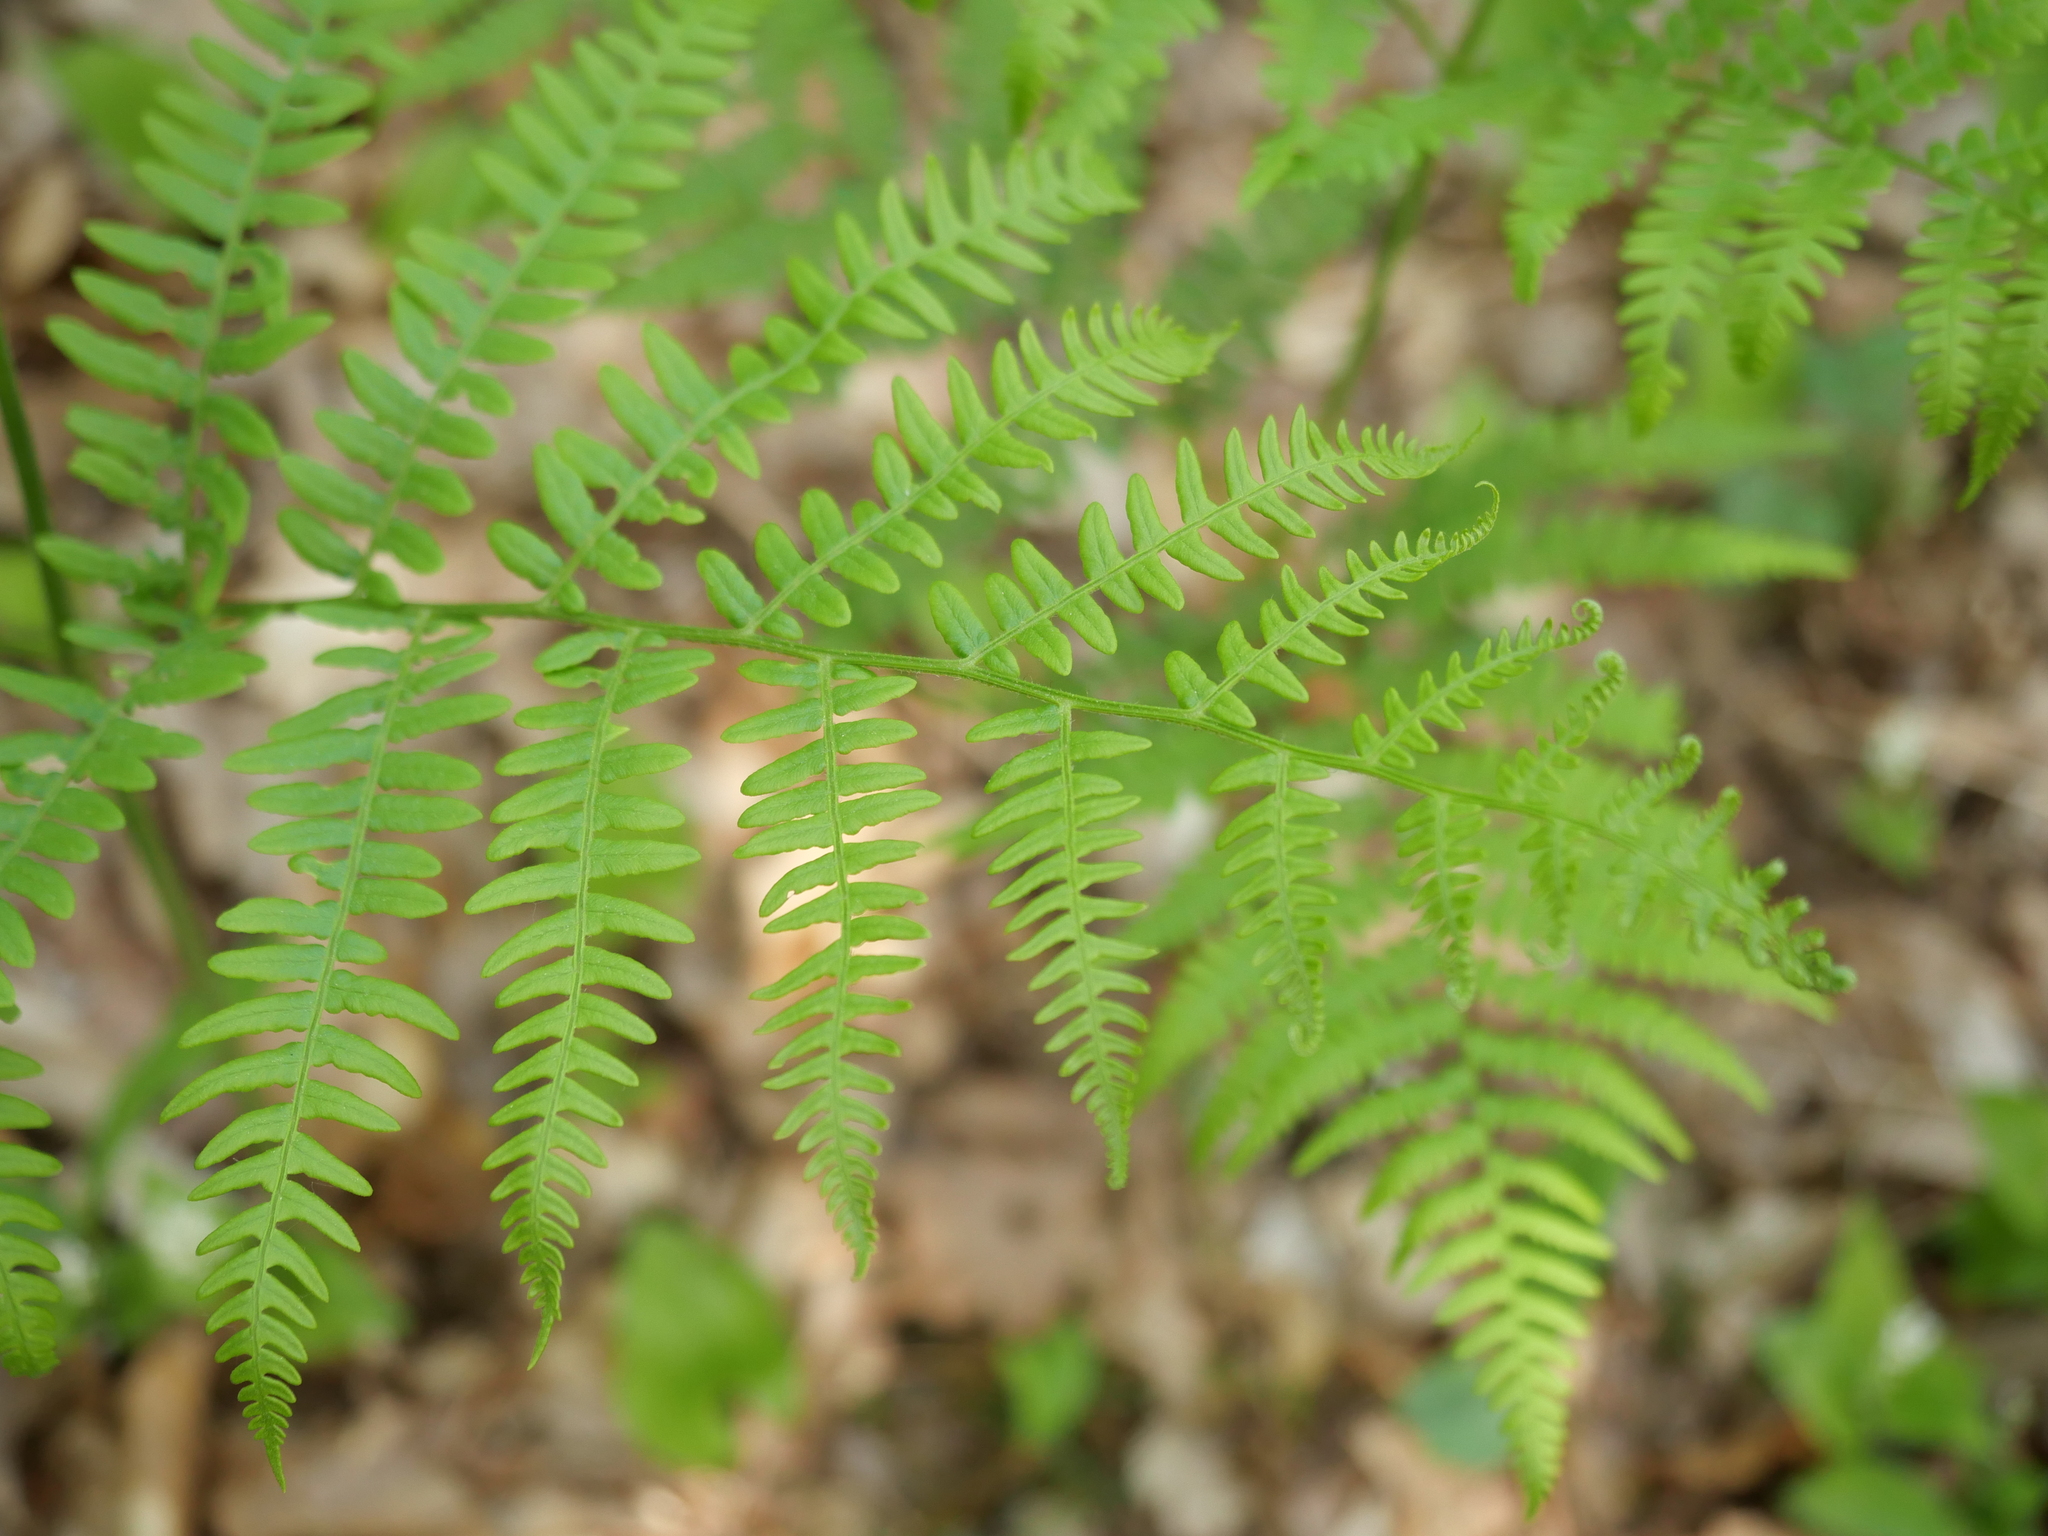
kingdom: Plantae
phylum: Tracheophyta
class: Polypodiopsida
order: Polypodiales
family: Dennstaedtiaceae
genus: Pteridium
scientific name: Pteridium aquilinum
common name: Bracken
